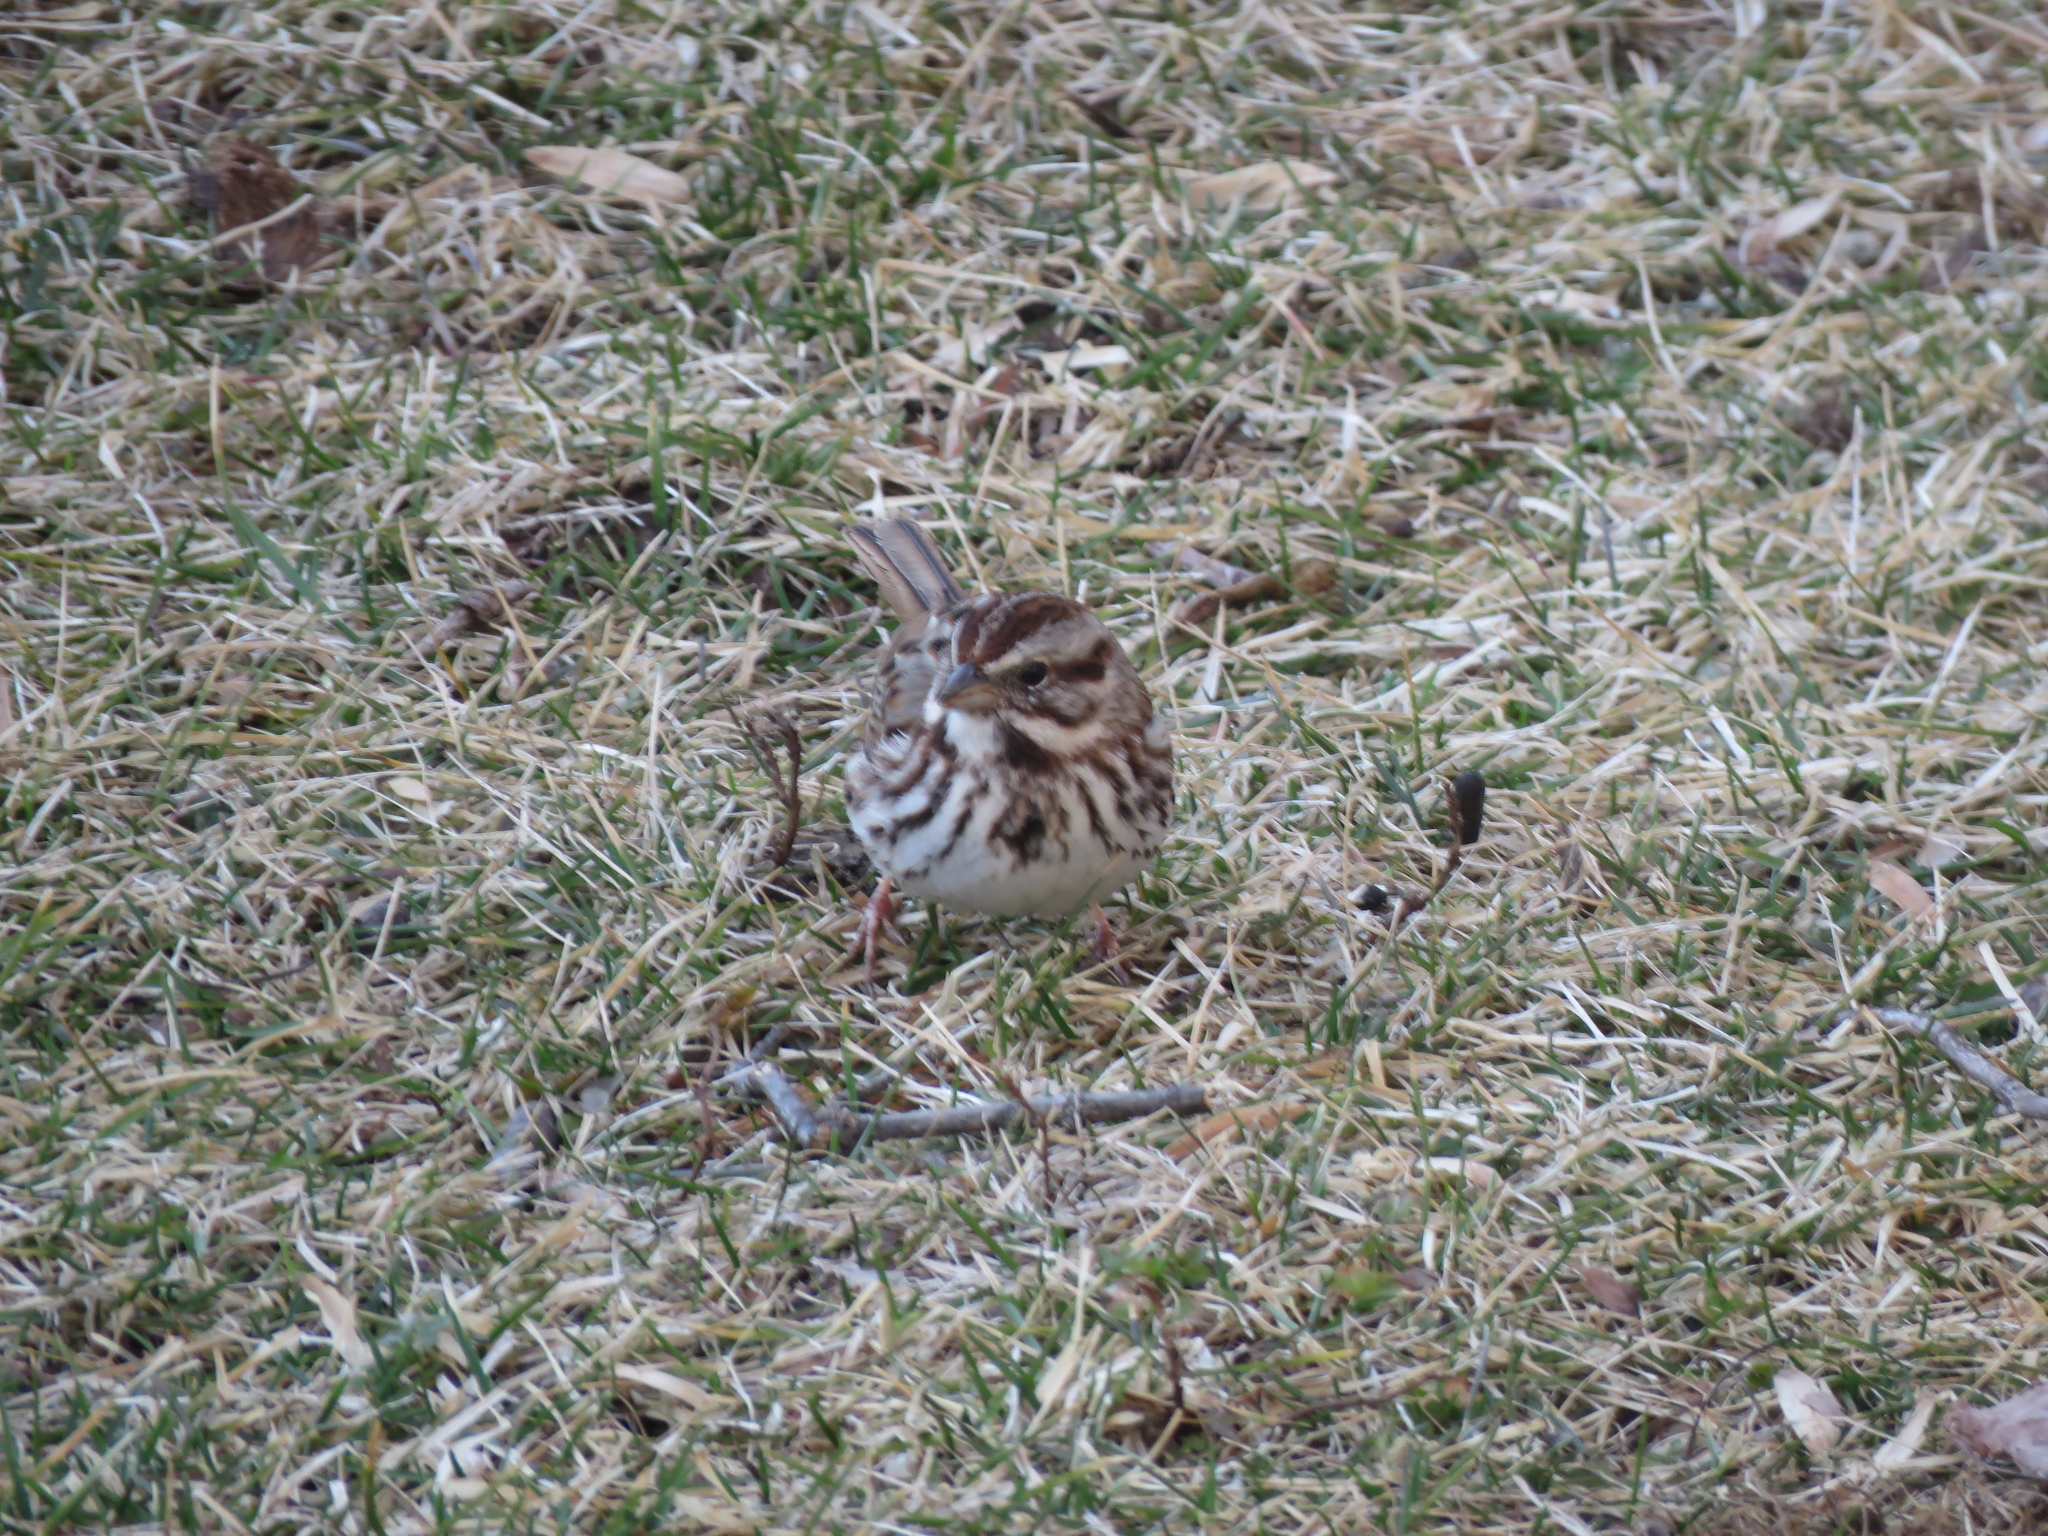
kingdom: Animalia
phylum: Chordata
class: Aves
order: Passeriformes
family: Passerellidae
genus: Melospiza
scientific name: Melospiza melodia
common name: Song sparrow
